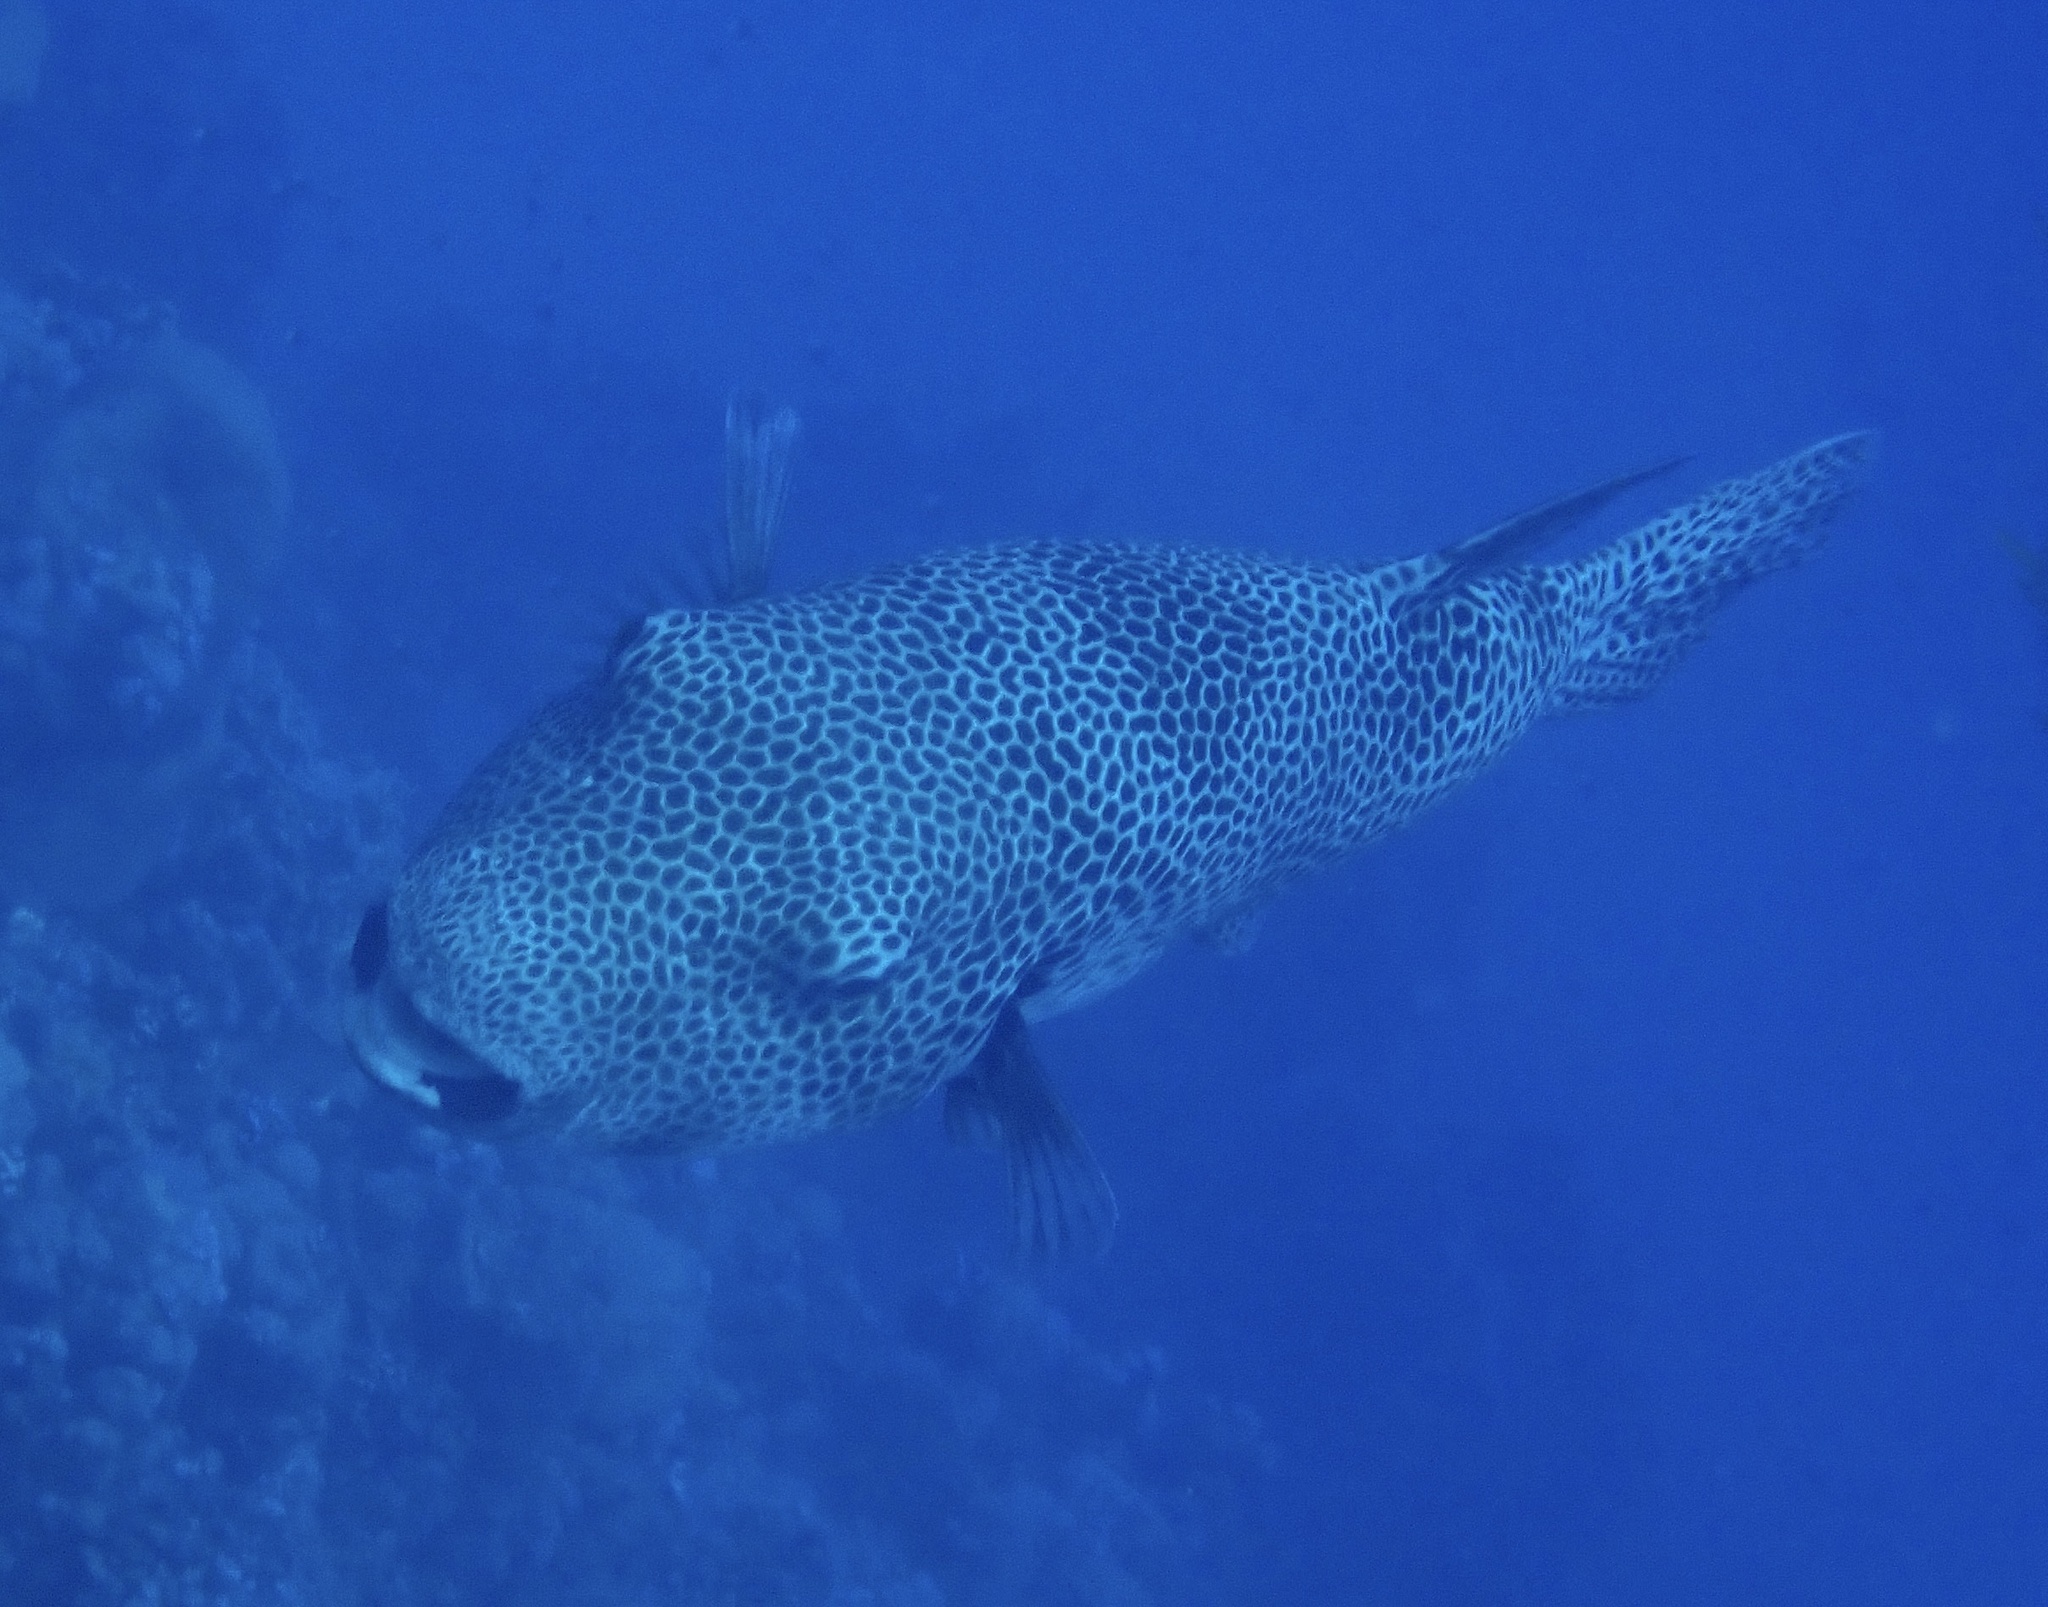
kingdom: Animalia
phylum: Chordata
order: Tetraodontiformes
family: Tetraodontidae
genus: Arothron
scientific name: Arothron stellatus
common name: Star blaasop
